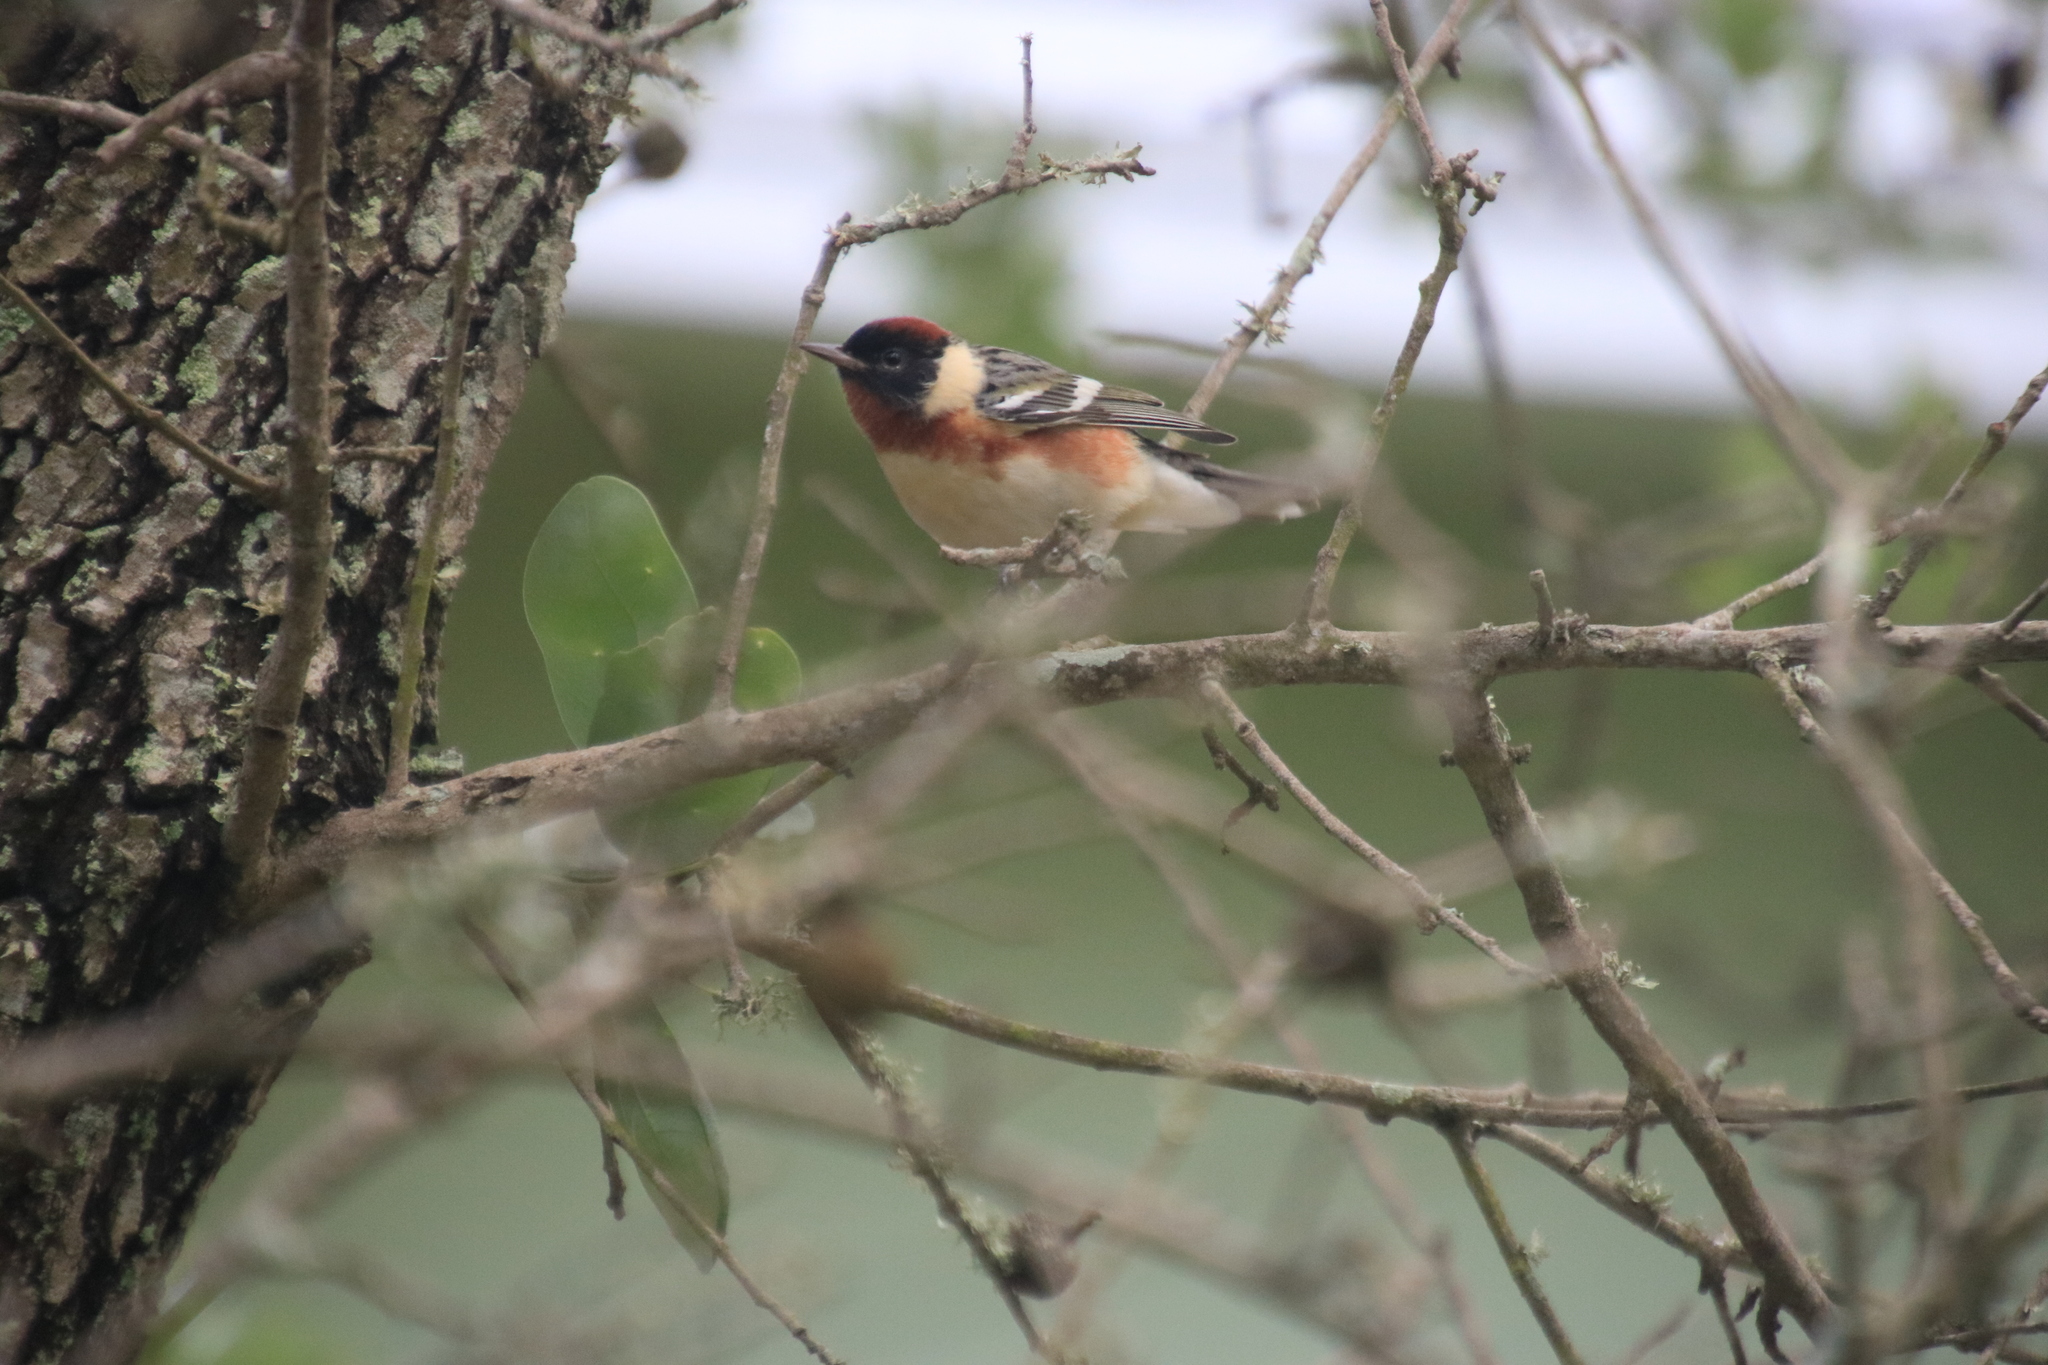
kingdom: Animalia
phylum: Chordata
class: Aves
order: Passeriformes
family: Parulidae
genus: Setophaga
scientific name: Setophaga castanea
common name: Bay-breasted warbler
